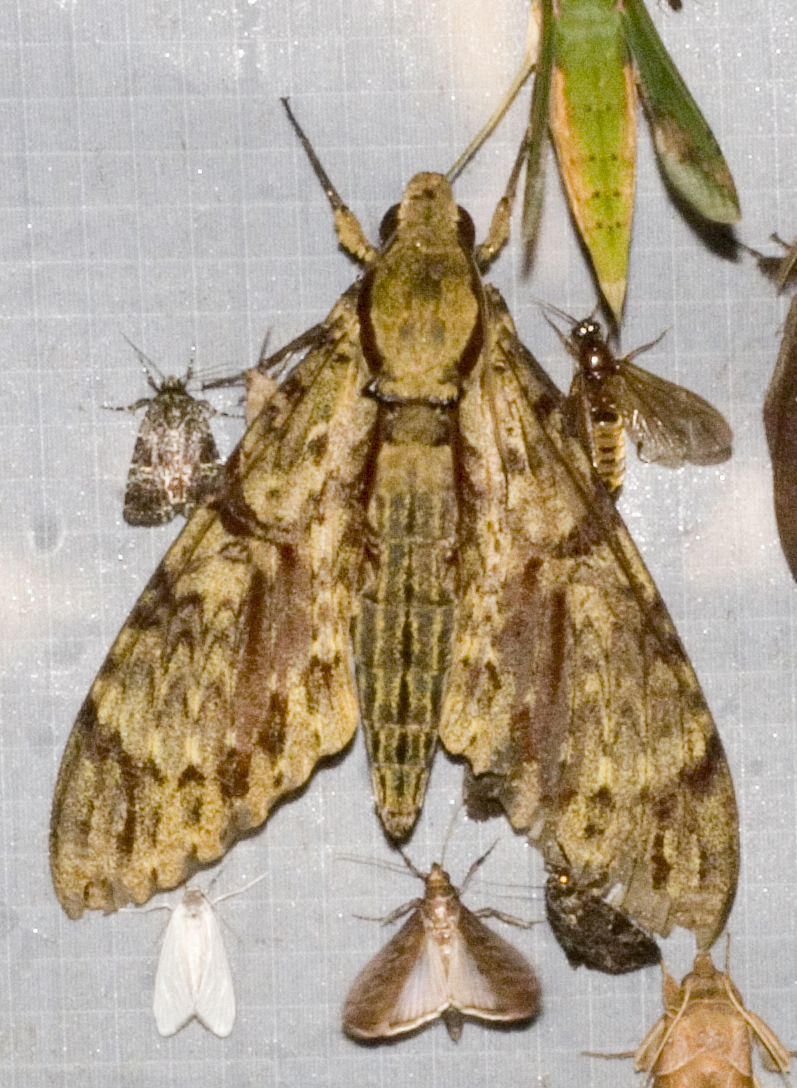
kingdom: Animalia
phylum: Arthropoda
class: Insecta
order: Lepidoptera
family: Sphingidae
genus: Amphimoea
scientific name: Amphimoea walkeri
